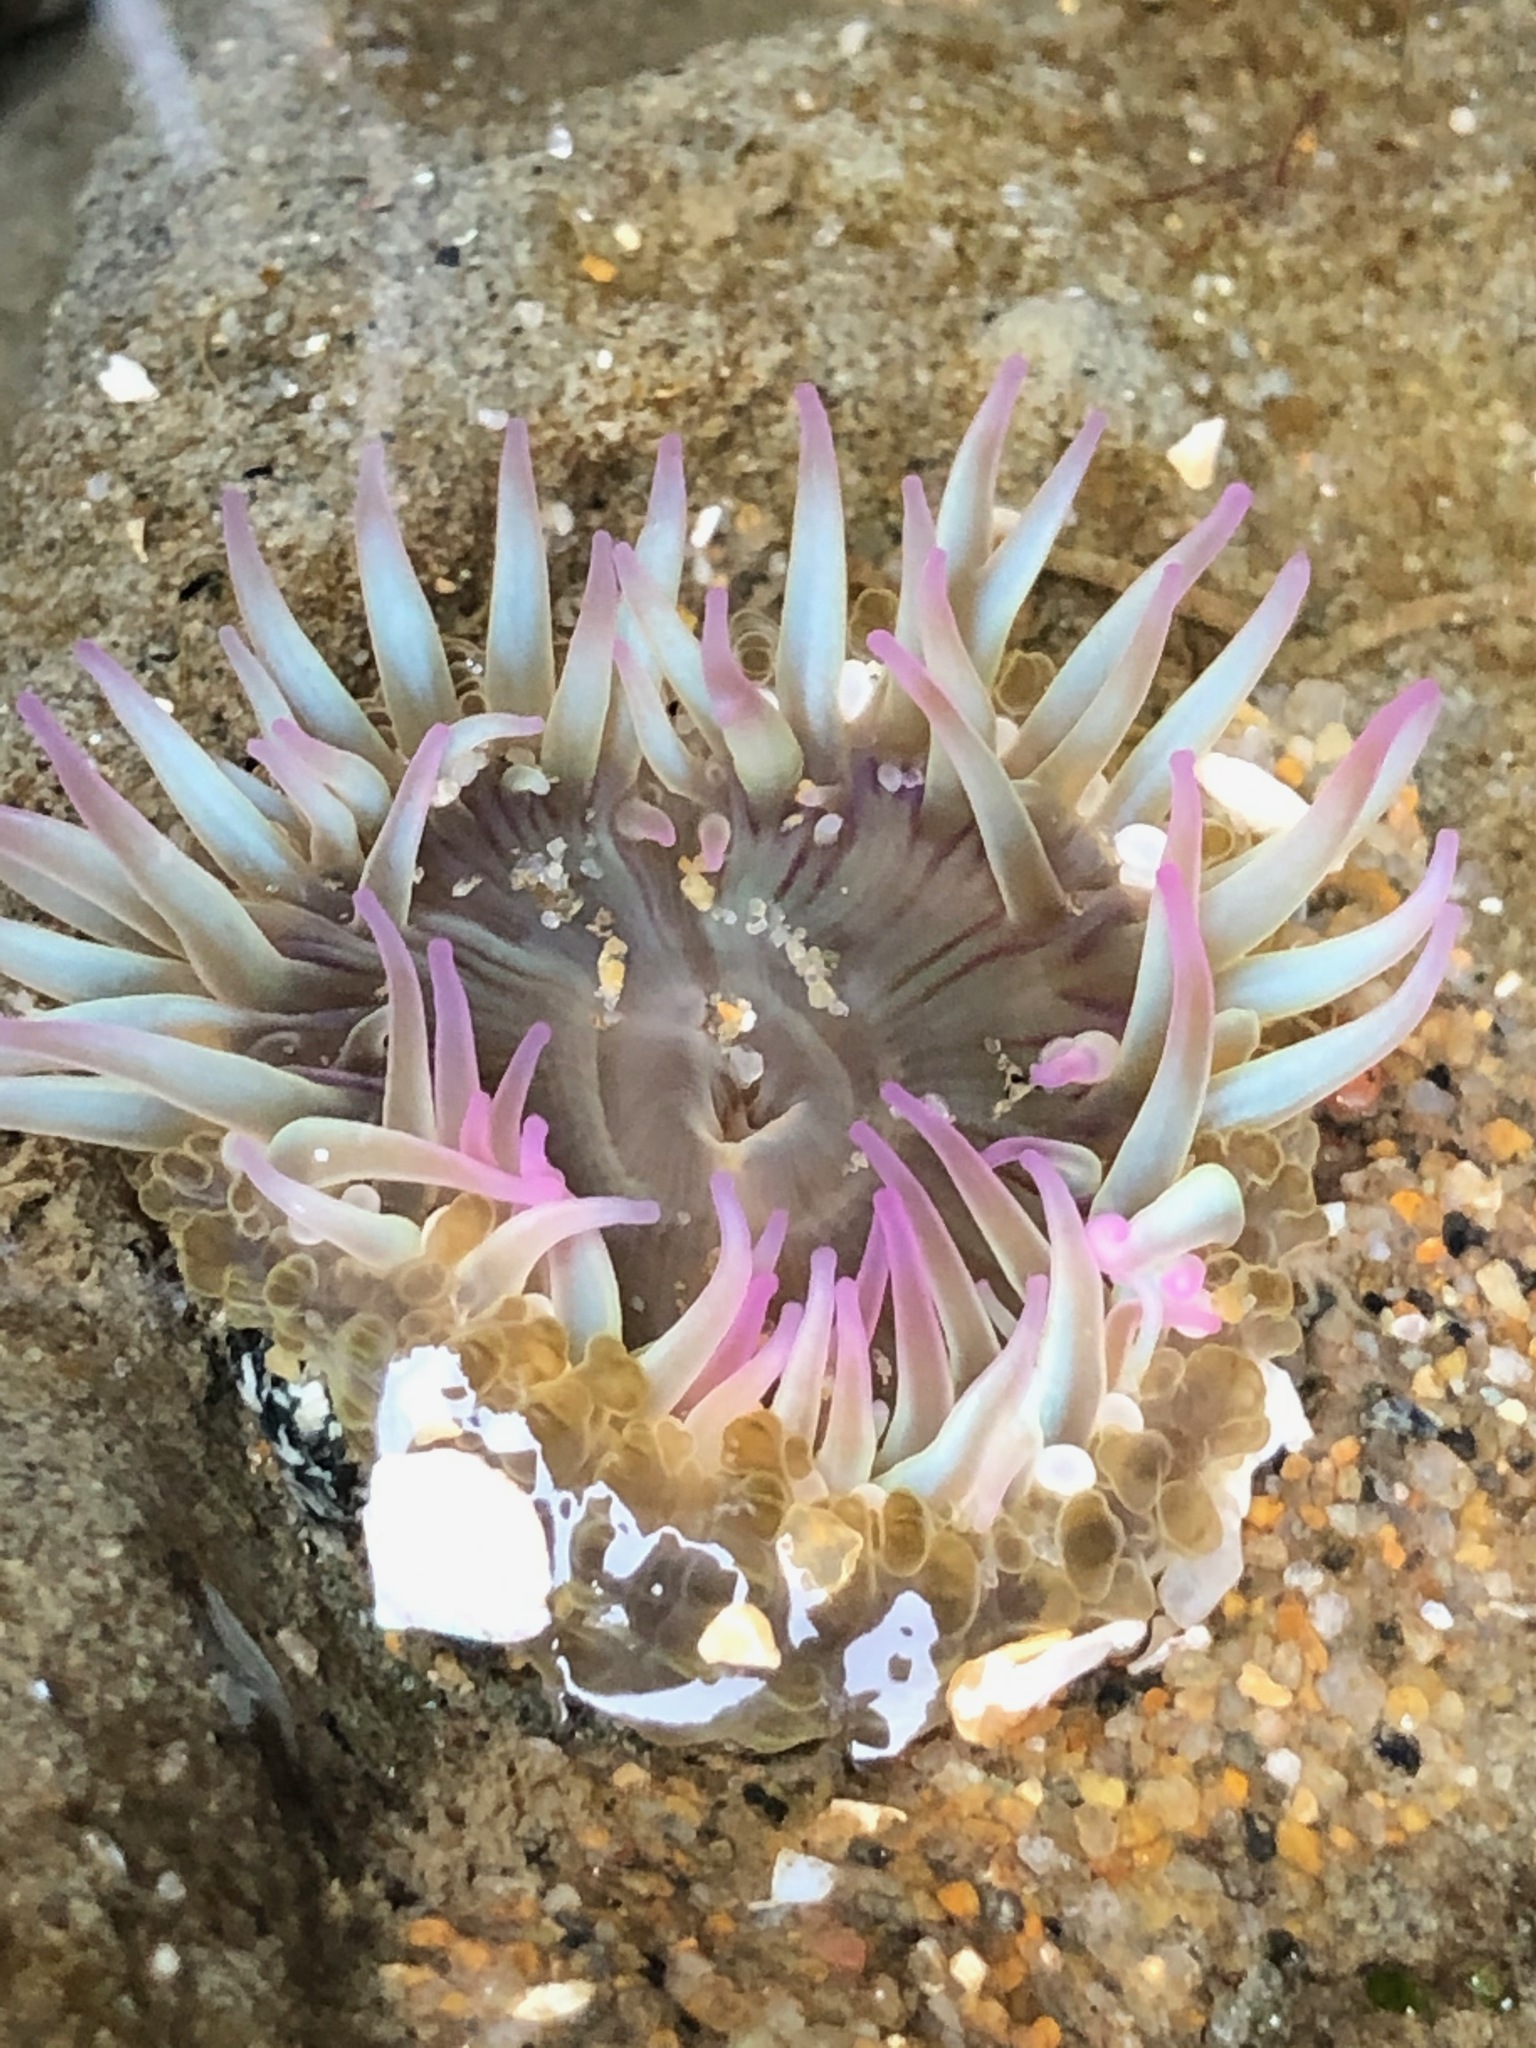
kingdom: Animalia
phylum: Cnidaria
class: Anthozoa
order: Actiniaria
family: Actiniidae
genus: Anthopleura
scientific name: Anthopleura elegantissima
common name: Clonal anemone
